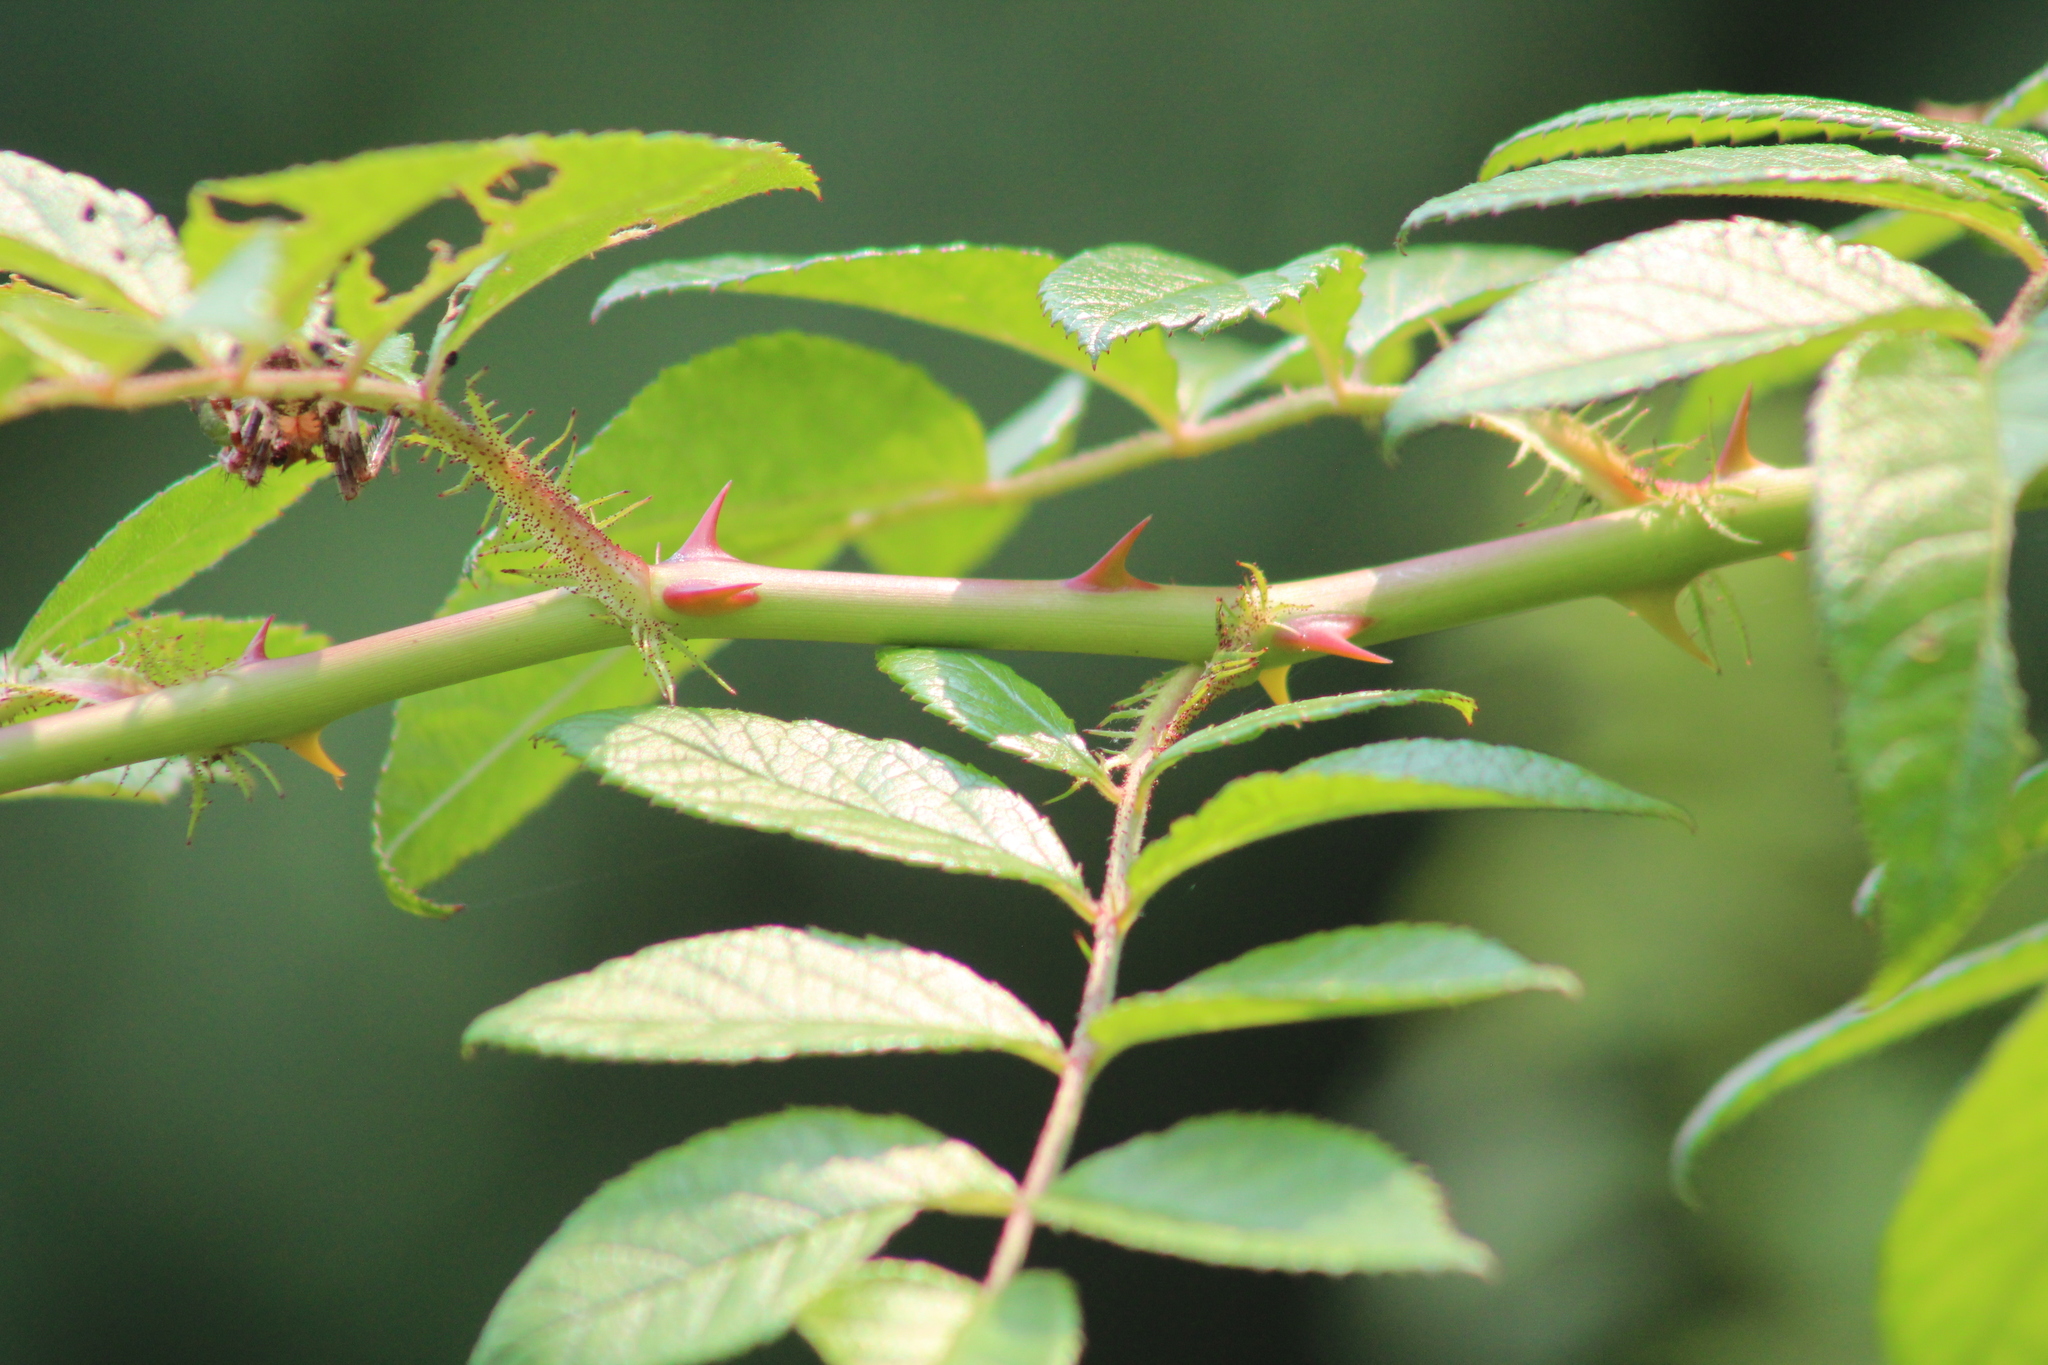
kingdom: Plantae
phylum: Tracheophyta
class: Magnoliopsida
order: Rosales
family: Rosaceae
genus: Rosa
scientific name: Rosa multiflora
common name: Multiflora rose
